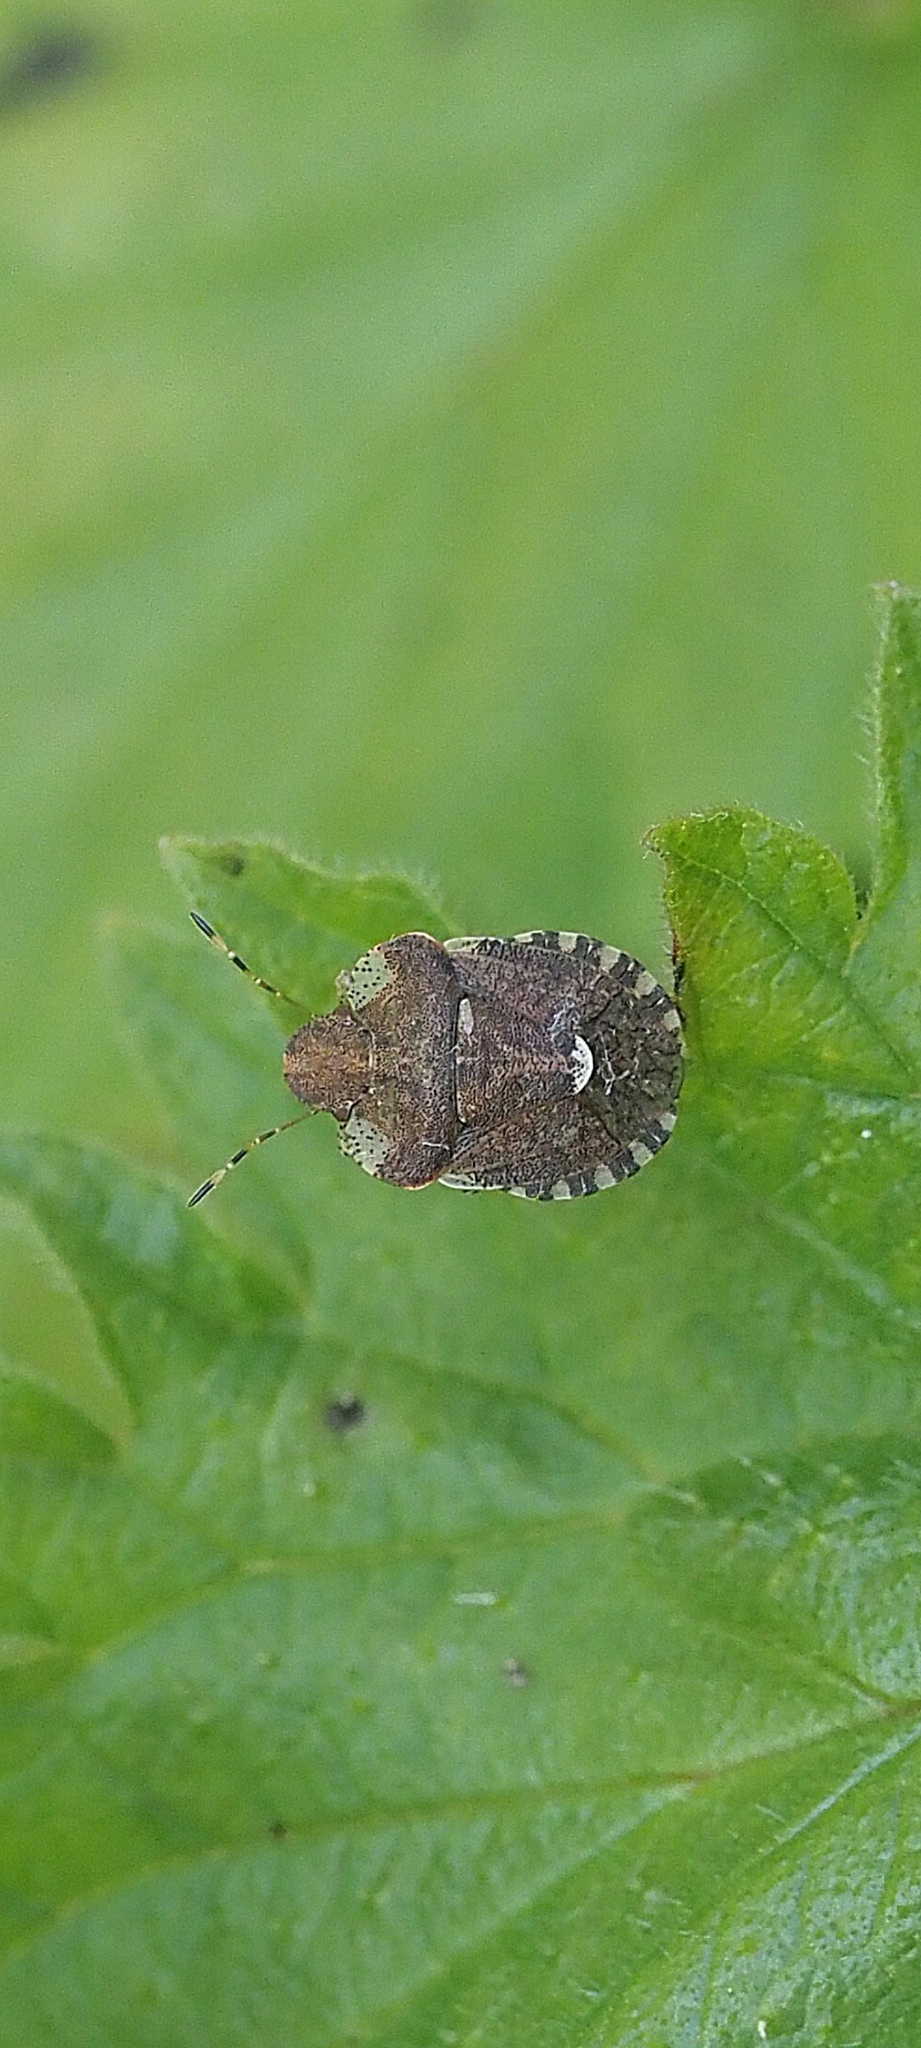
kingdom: Animalia
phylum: Arthropoda
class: Insecta
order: Hemiptera
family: Pentatomidae
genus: Dyroderes
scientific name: Dyroderes umbraculatus
